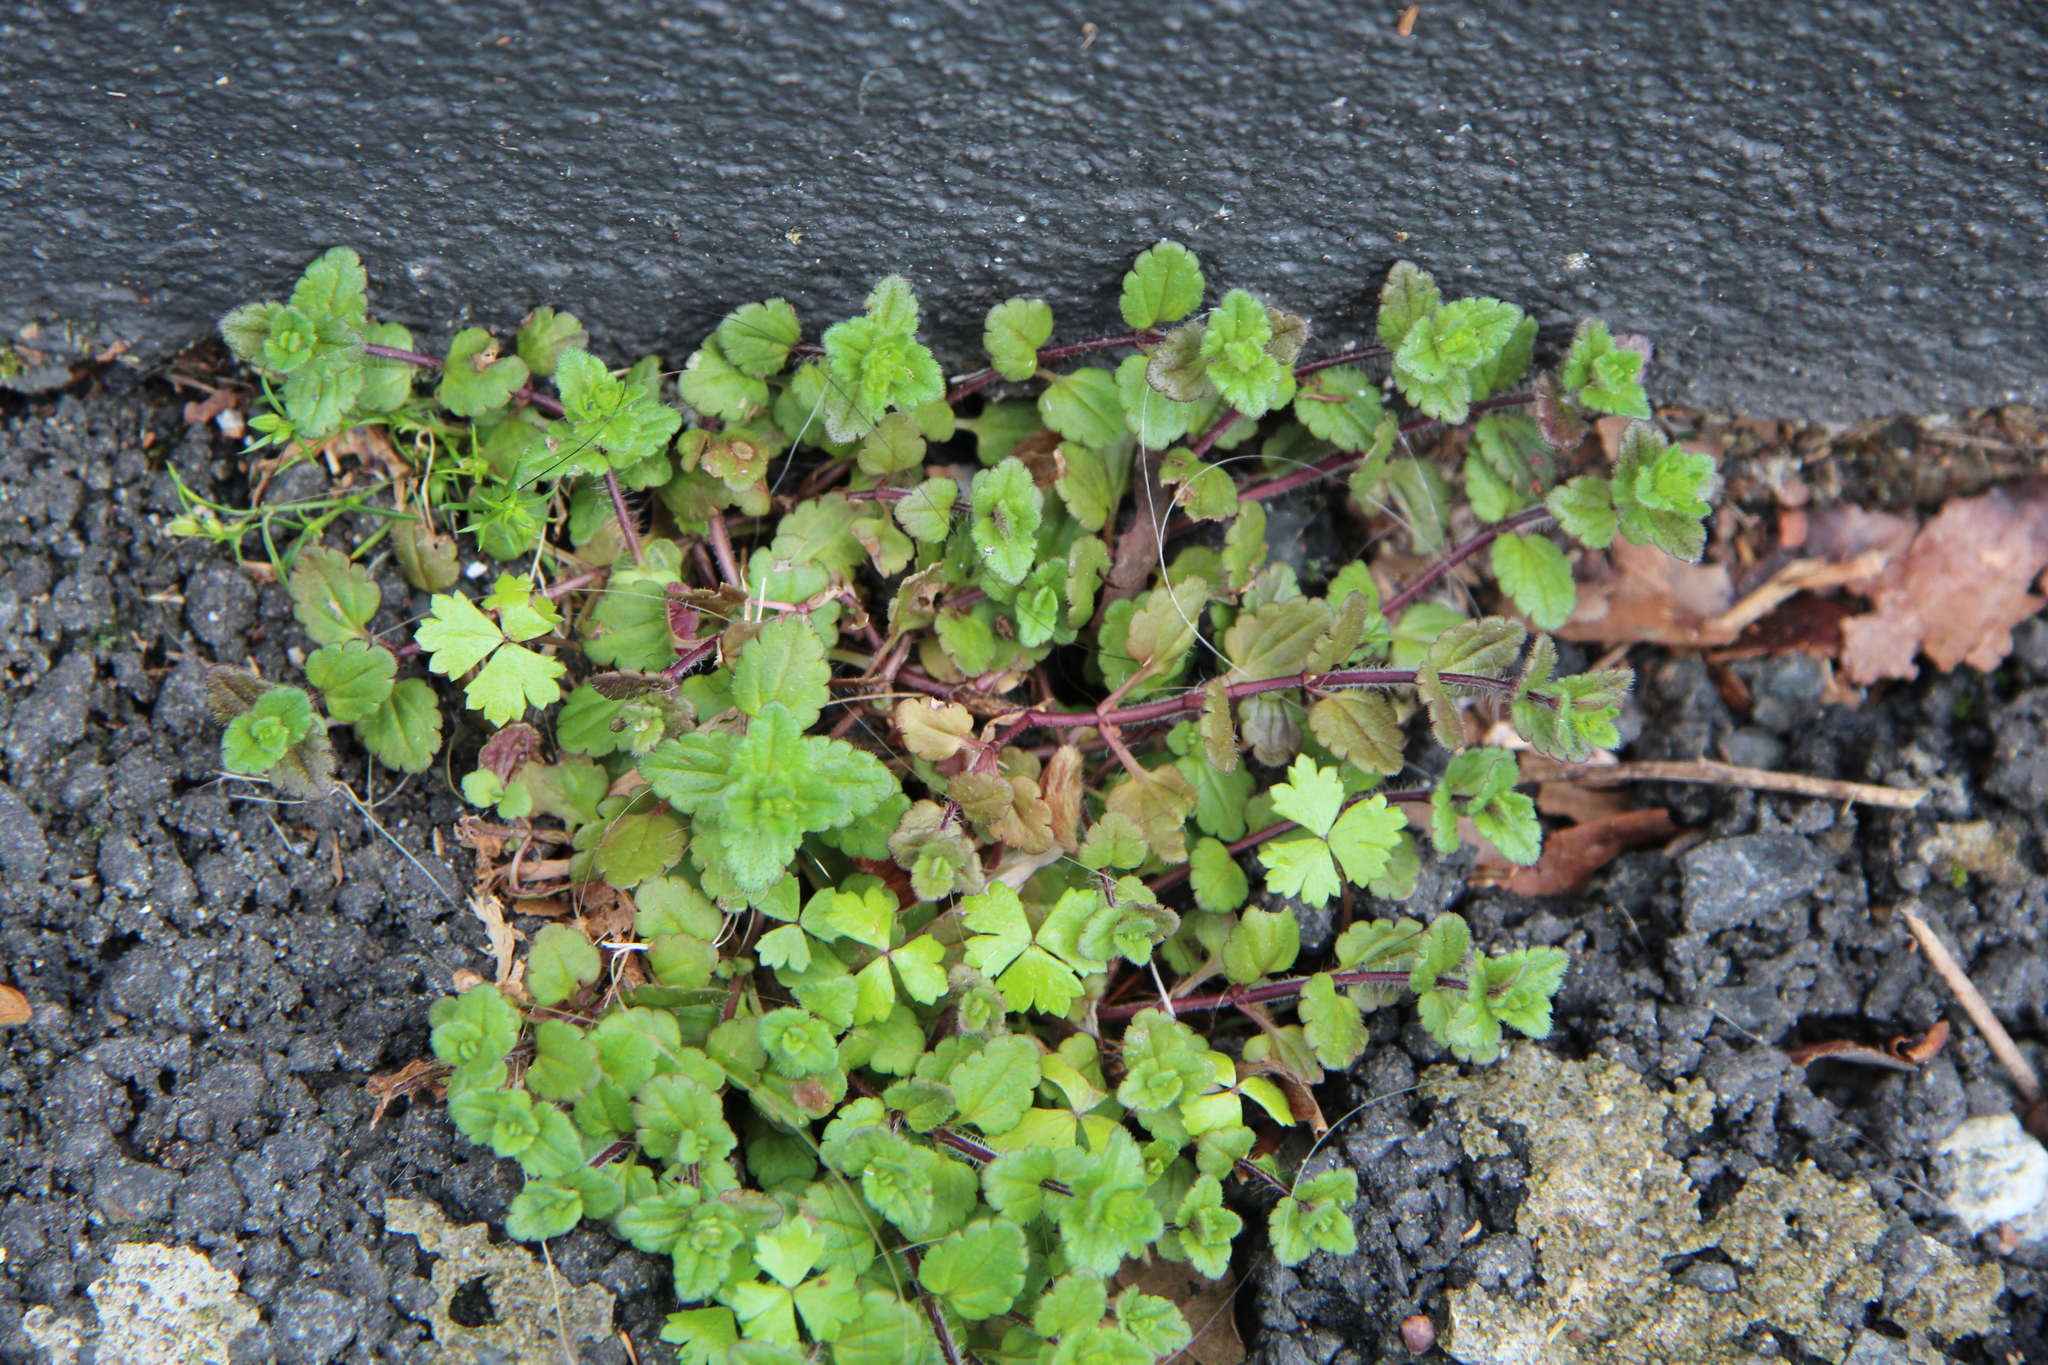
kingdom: Plantae
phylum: Tracheophyta
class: Magnoliopsida
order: Lamiales
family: Plantaginaceae
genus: Veronica
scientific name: Veronica arvensis
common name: Corn speedwell
